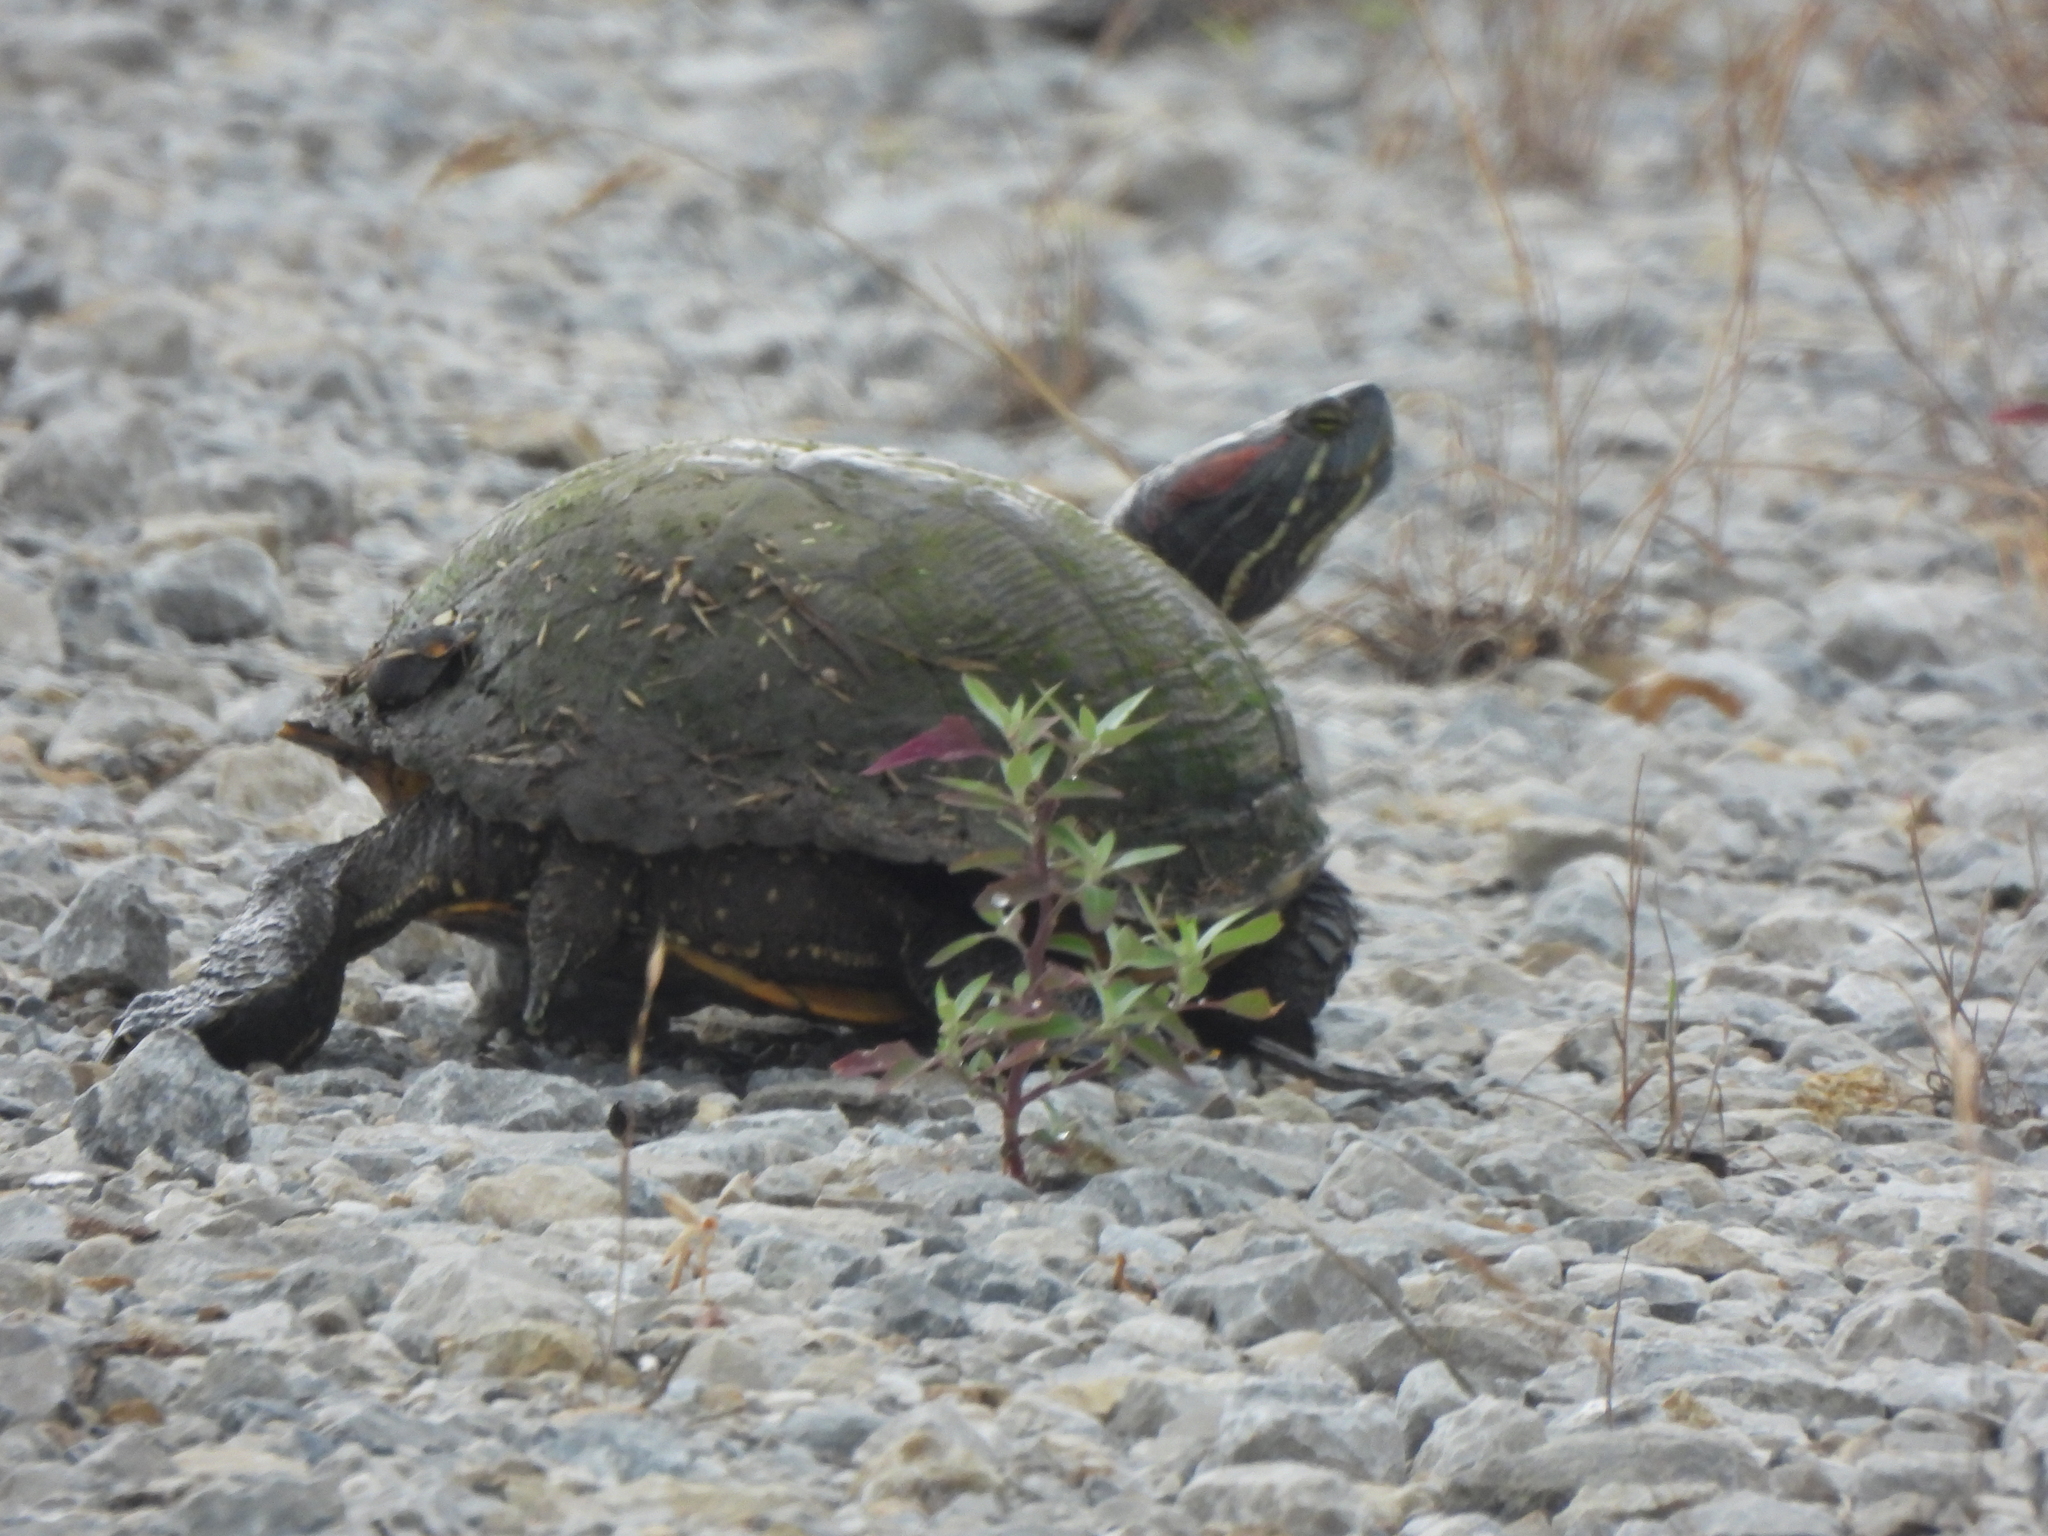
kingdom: Animalia
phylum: Chordata
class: Testudines
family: Emydidae
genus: Trachemys
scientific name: Trachemys scripta
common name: Slider
